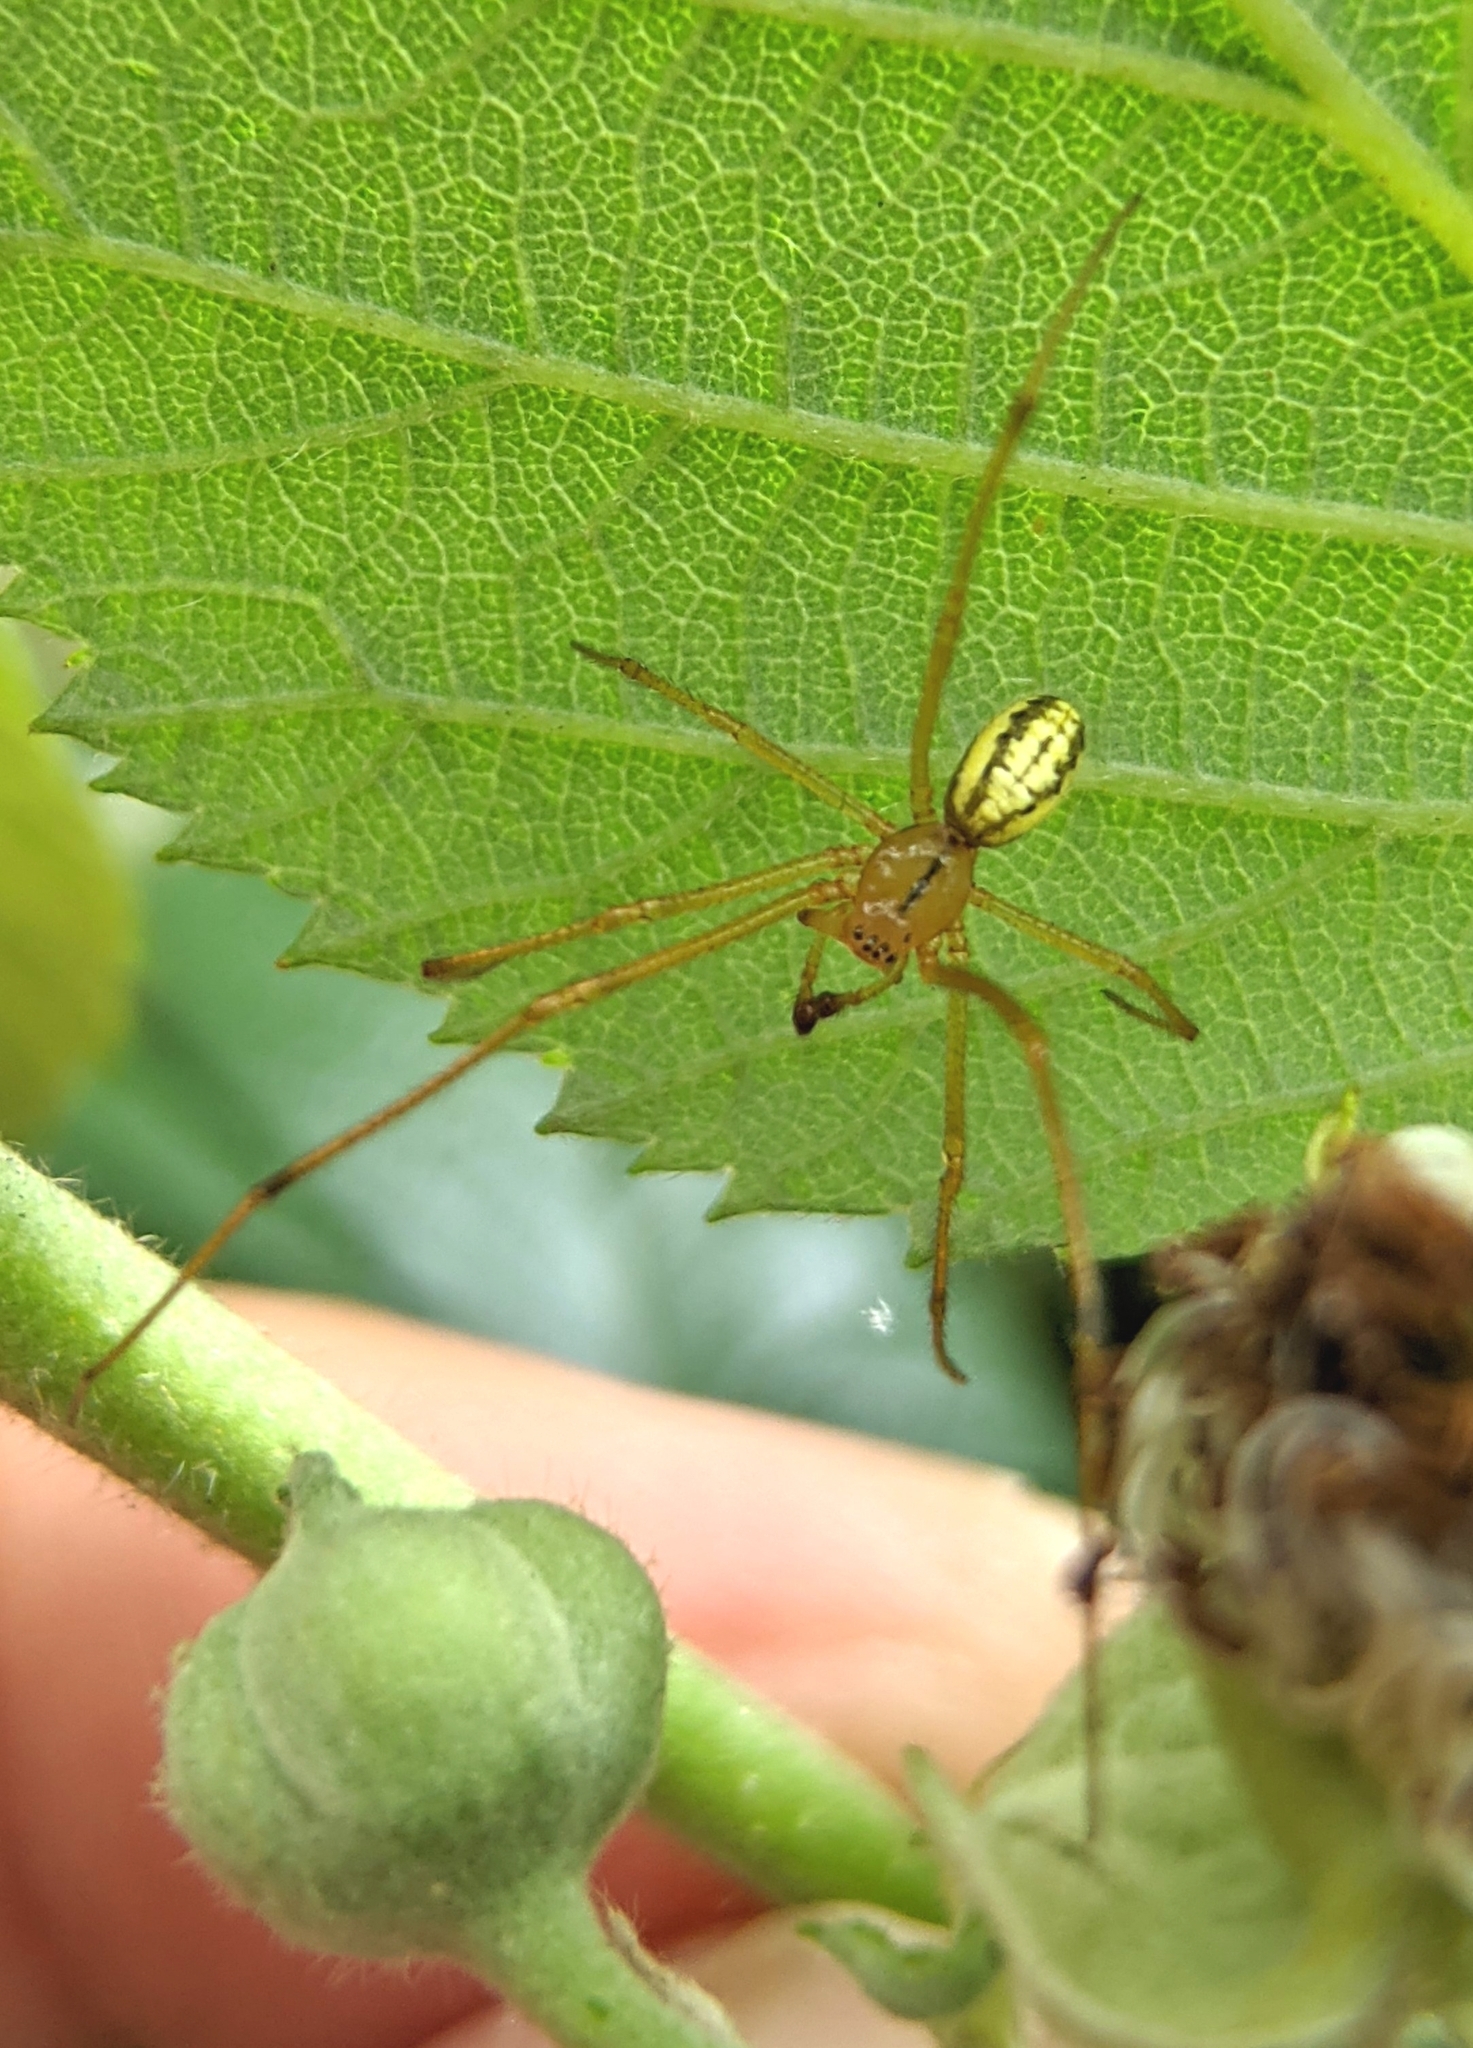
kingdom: Animalia
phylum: Arthropoda
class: Arachnida
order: Araneae
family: Theridiidae
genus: Enoplognatha
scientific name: Enoplognatha
